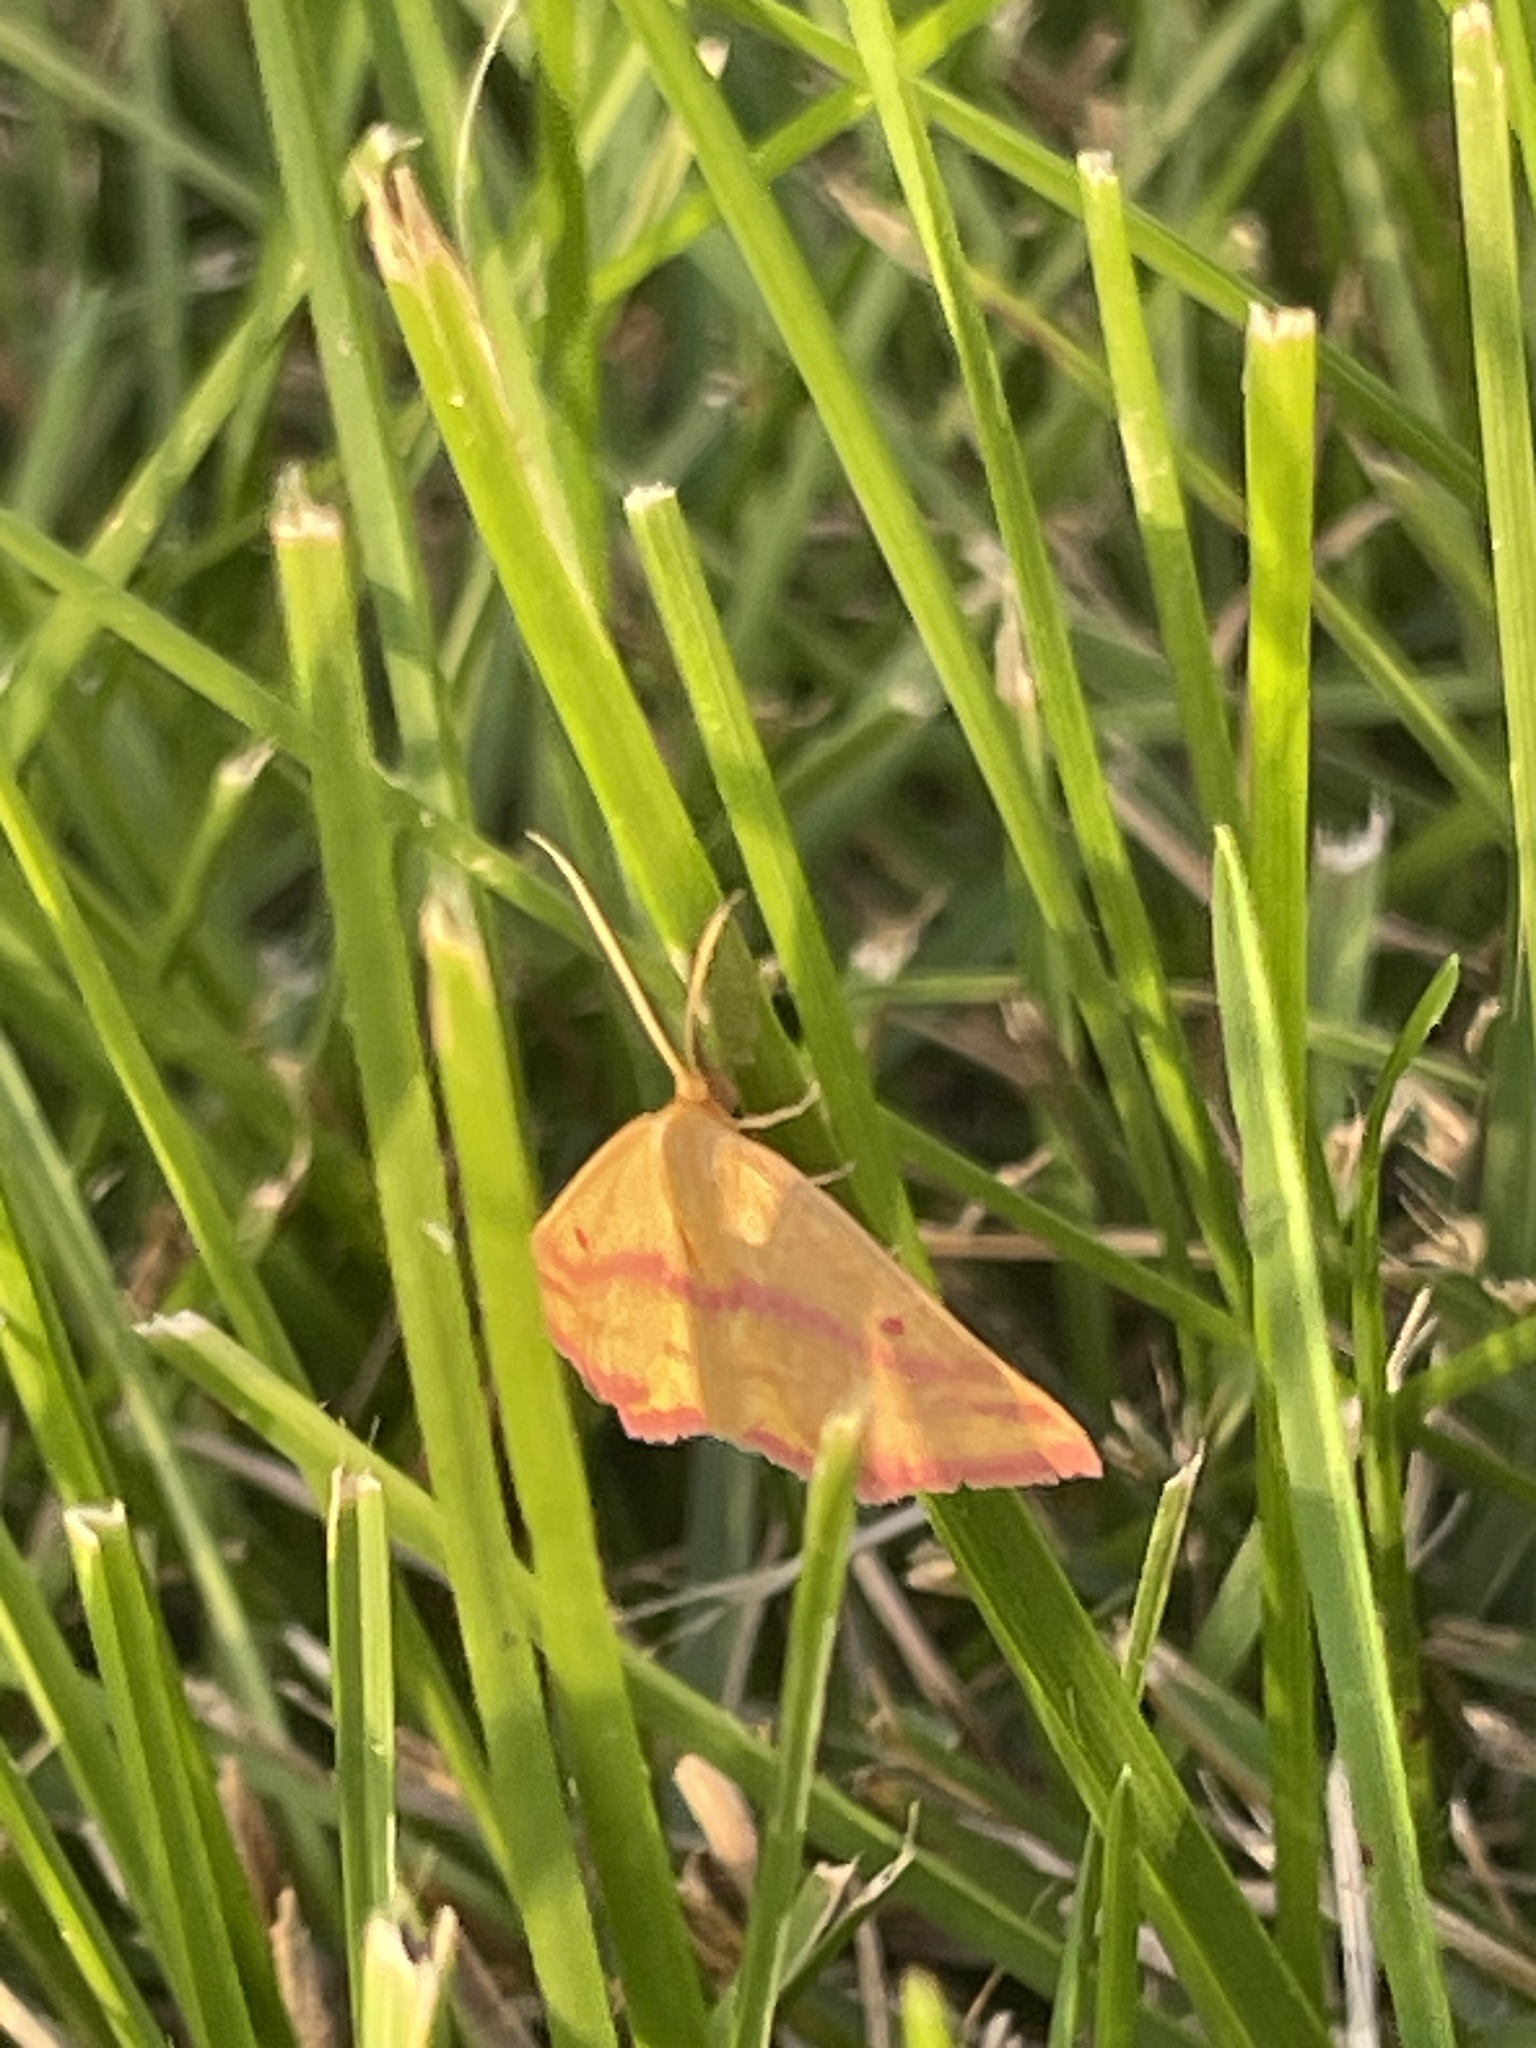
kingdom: Animalia
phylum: Arthropoda
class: Insecta
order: Lepidoptera
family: Geometridae
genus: Haematopis
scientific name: Haematopis grataria
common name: Chickweed geometer
